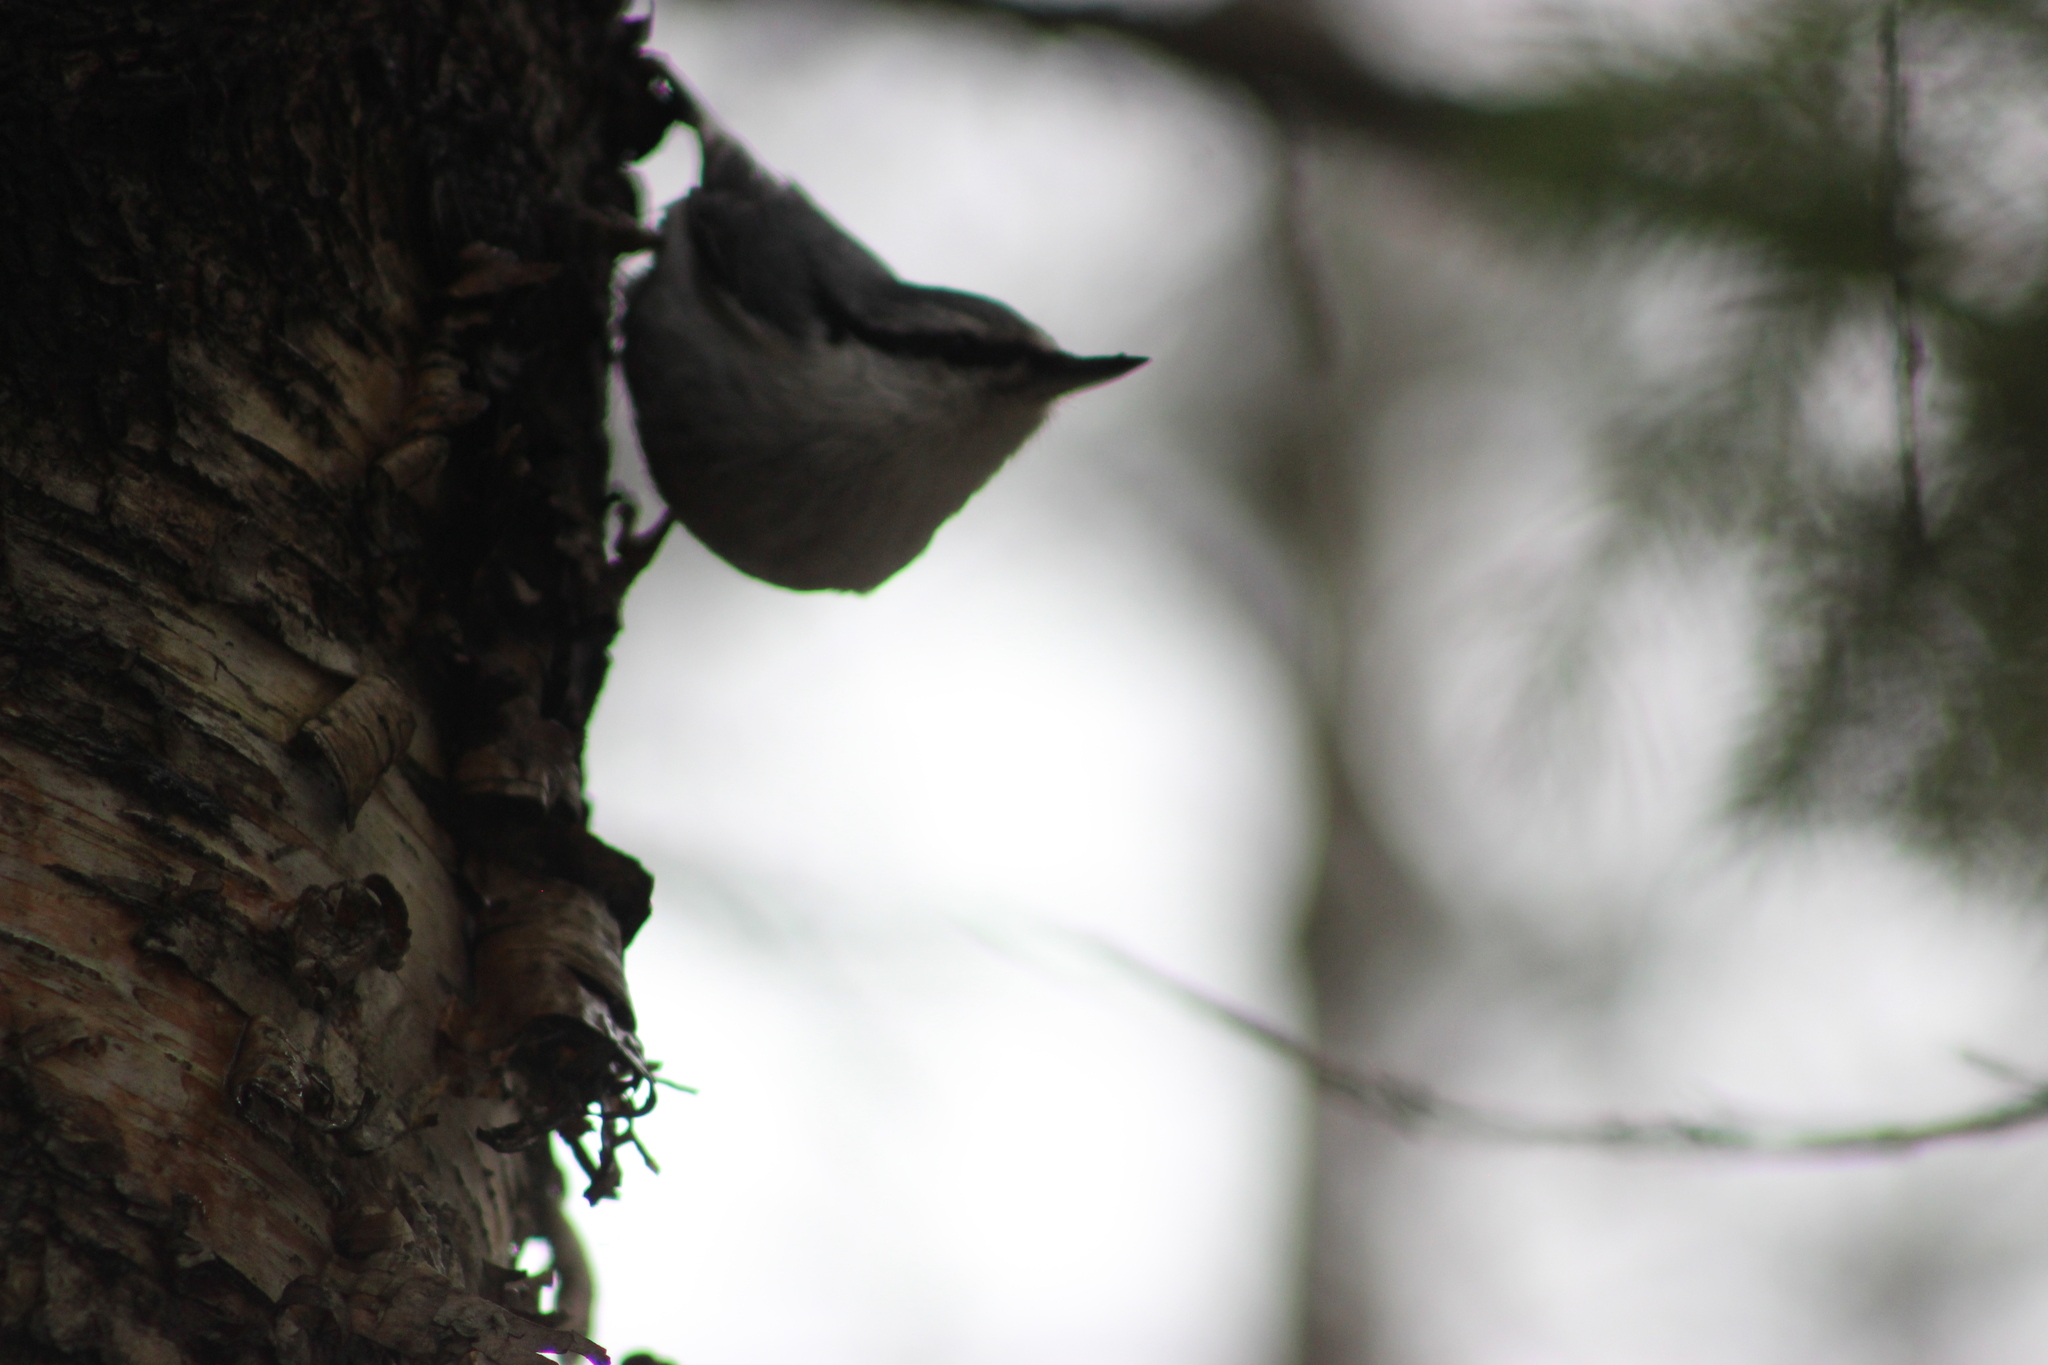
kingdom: Animalia
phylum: Chordata
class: Aves
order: Passeriformes
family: Sittidae
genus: Sitta
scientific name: Sitta europaea
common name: Eurasian nuthatch
